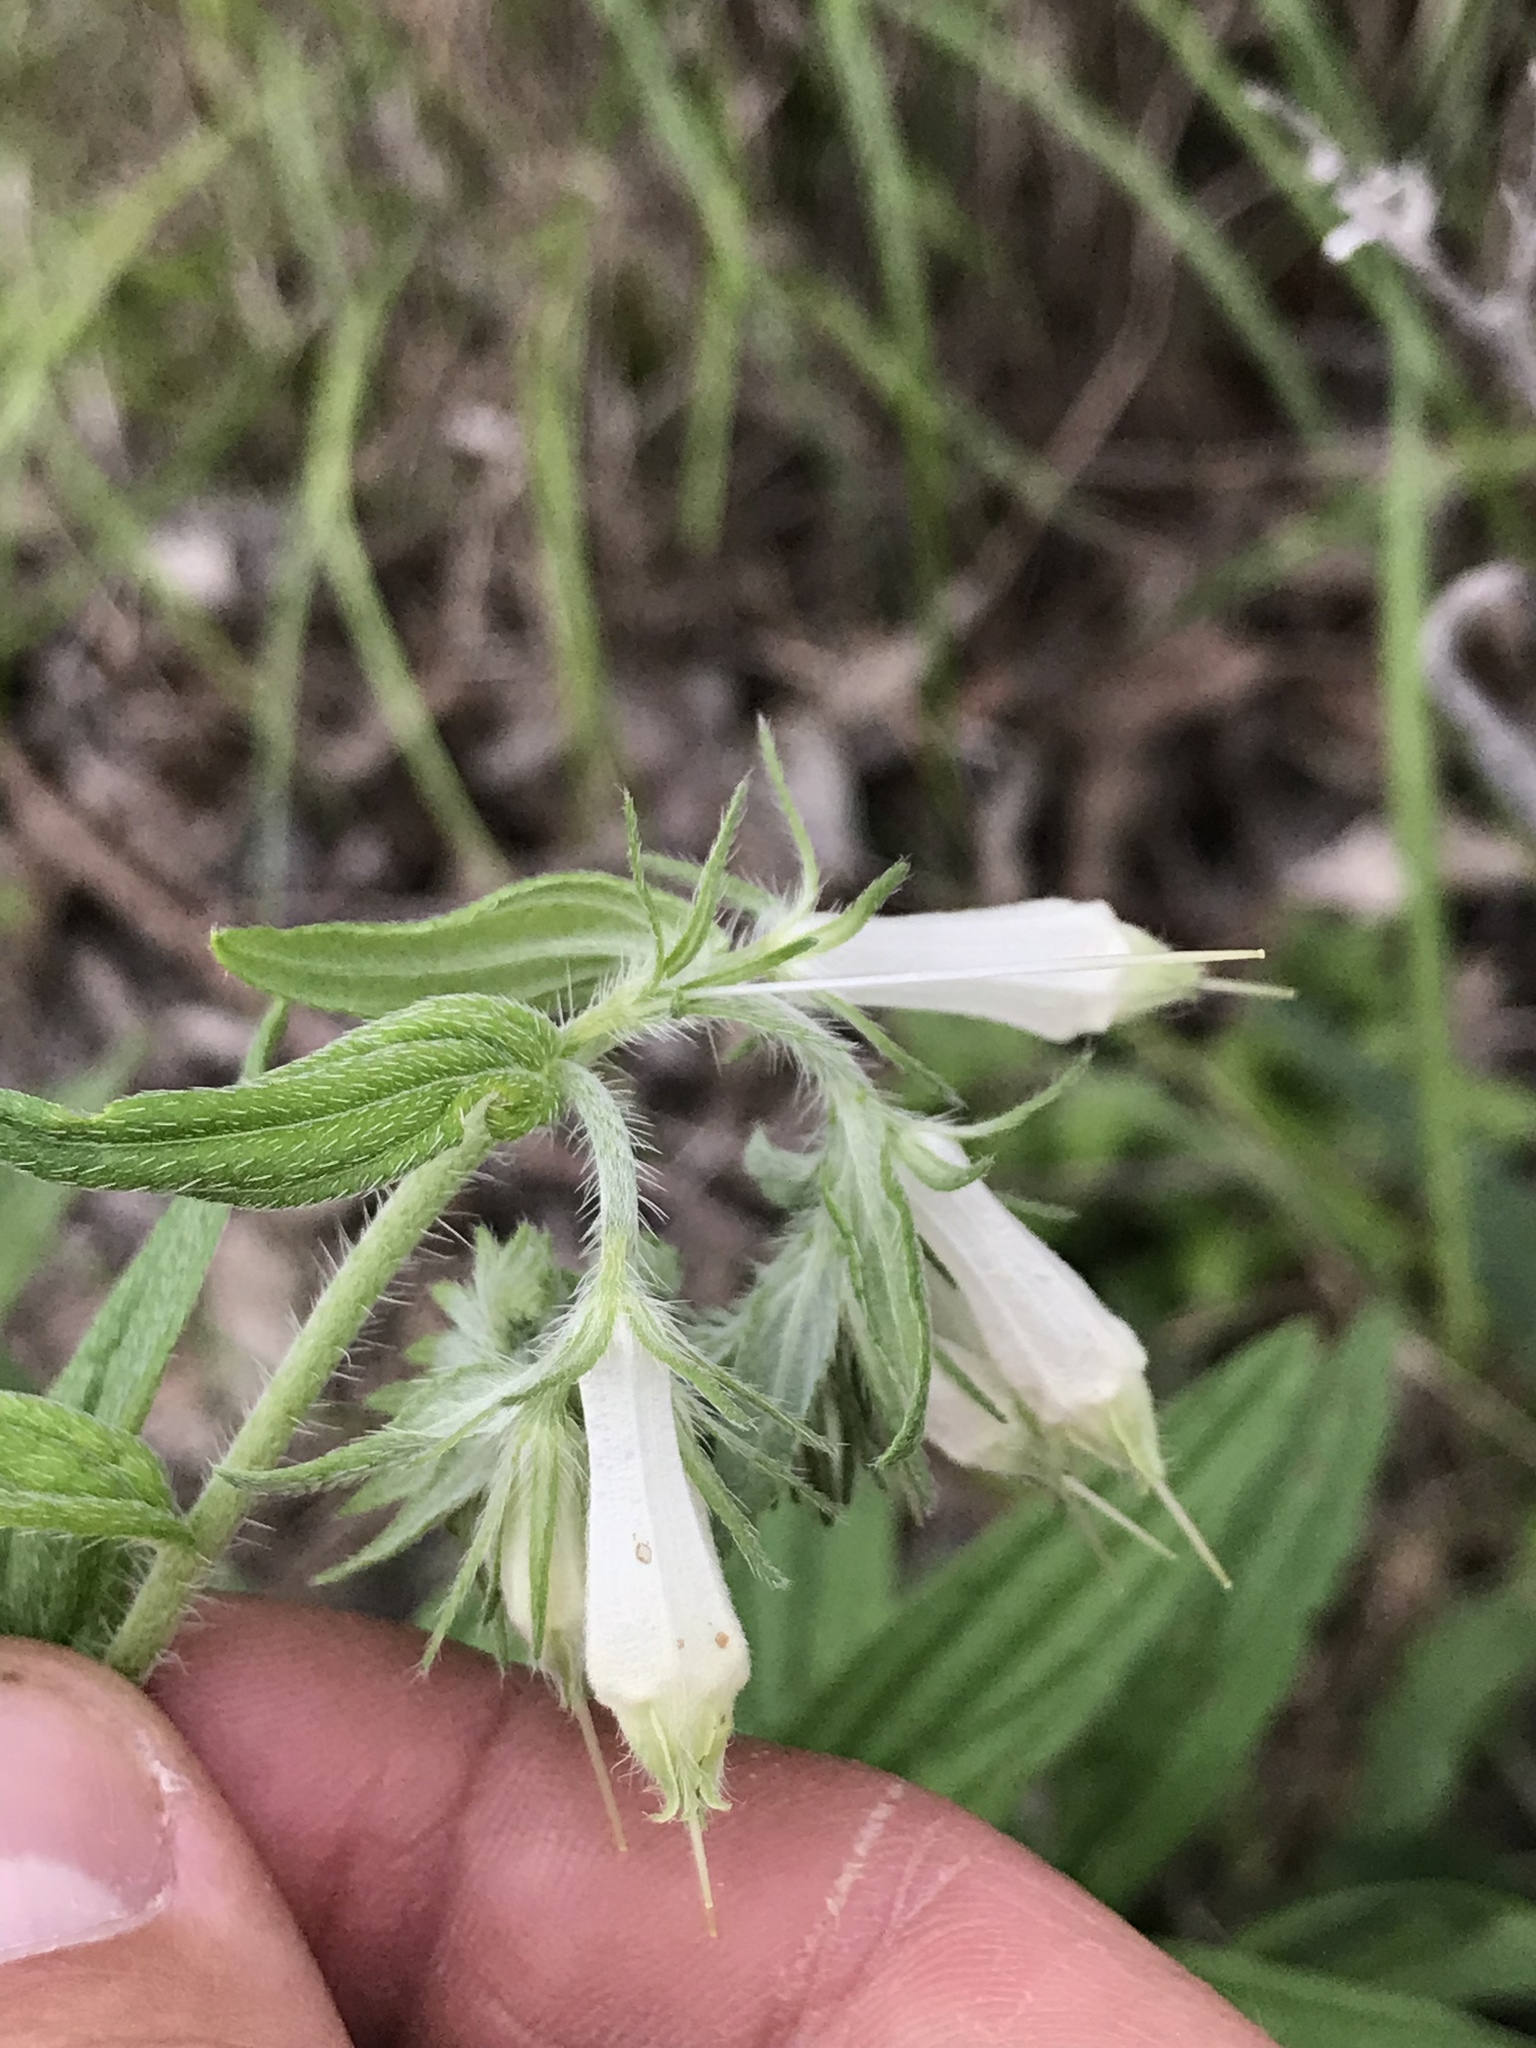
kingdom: Plantae
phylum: Tracheophyta
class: Magnoliopsida
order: Boraginales
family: Boraginaceae
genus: Lithospermum
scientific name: Lithospermum caroliniense
